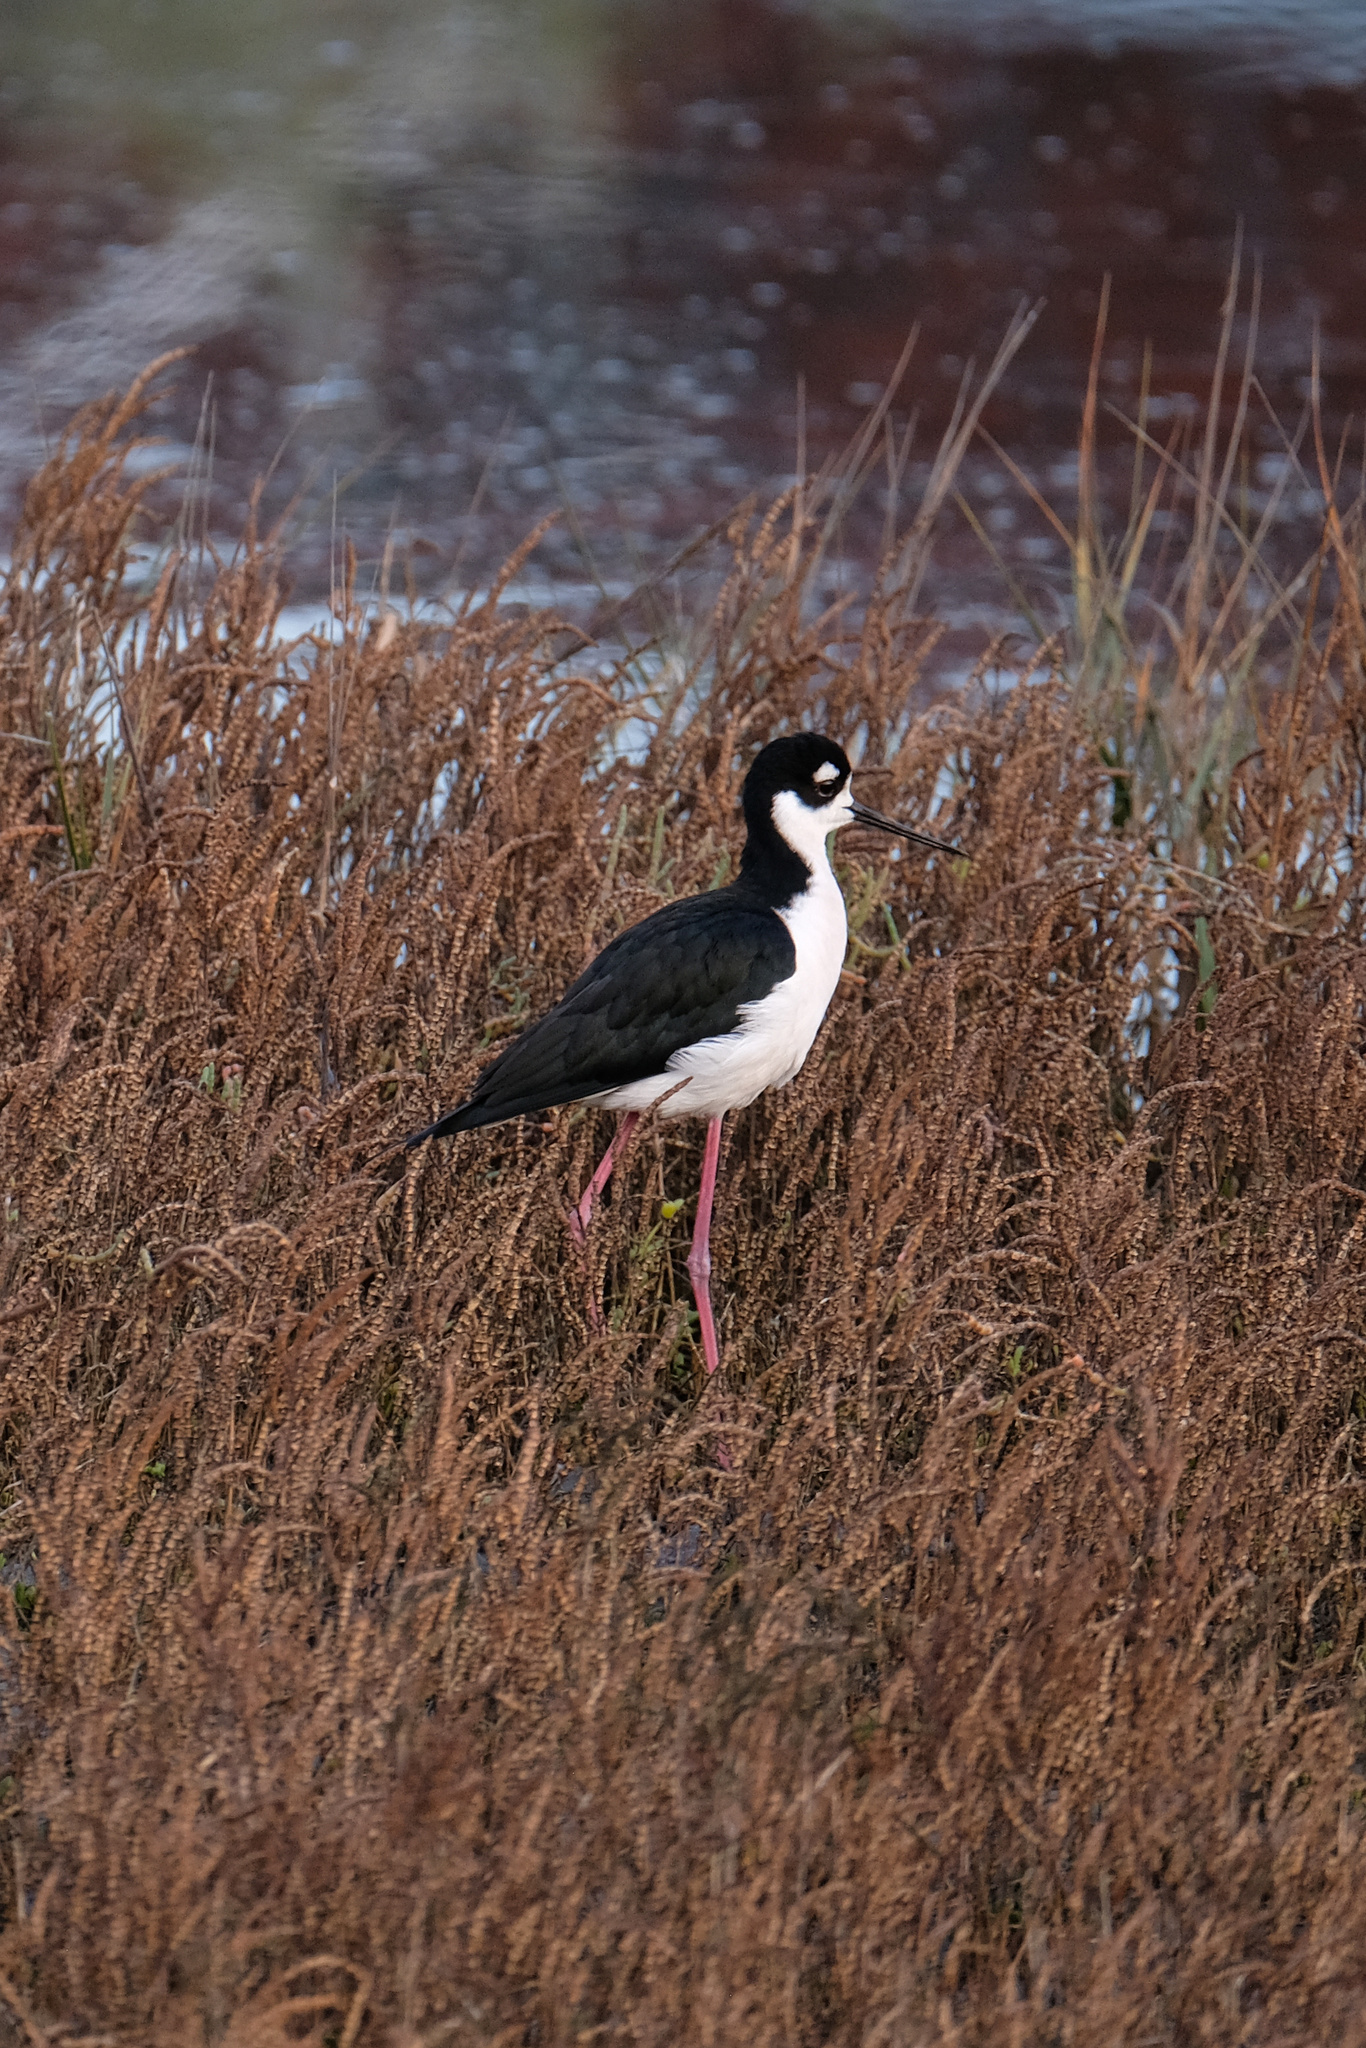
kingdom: Animalia
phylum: Chordata
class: Aves
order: Charadriiformes
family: Recurvirostridae
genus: Himantopus
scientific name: Himantopus mexicanus
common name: Black-necked stilt
